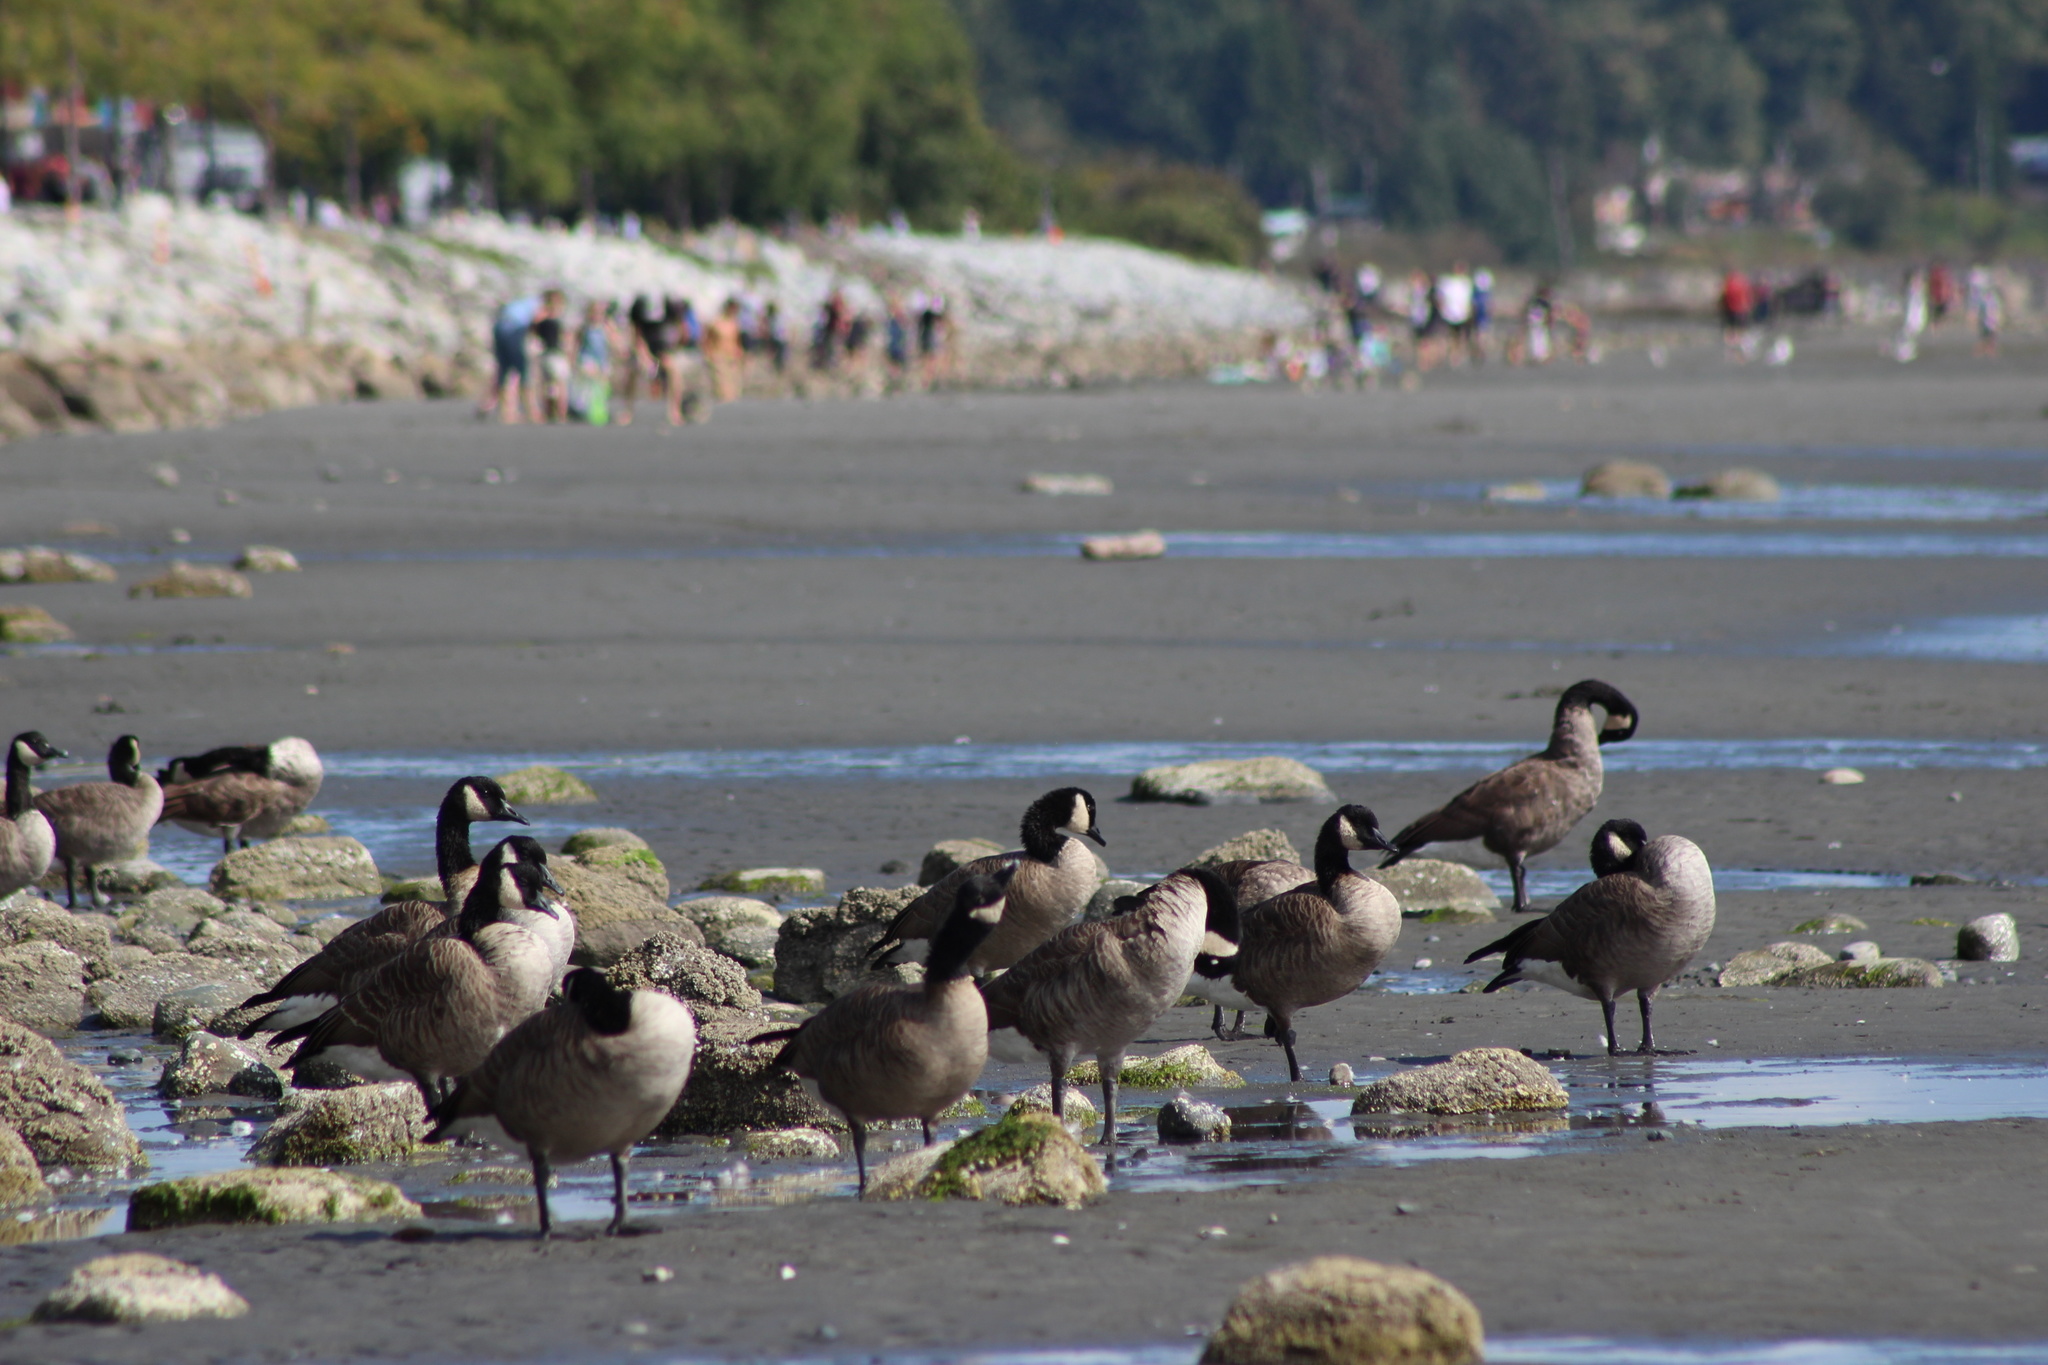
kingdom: Animalia
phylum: Chordata
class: Aves
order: Anseriformes
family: Anatidae
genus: Branta
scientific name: Branta canadensis
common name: Canada goose
